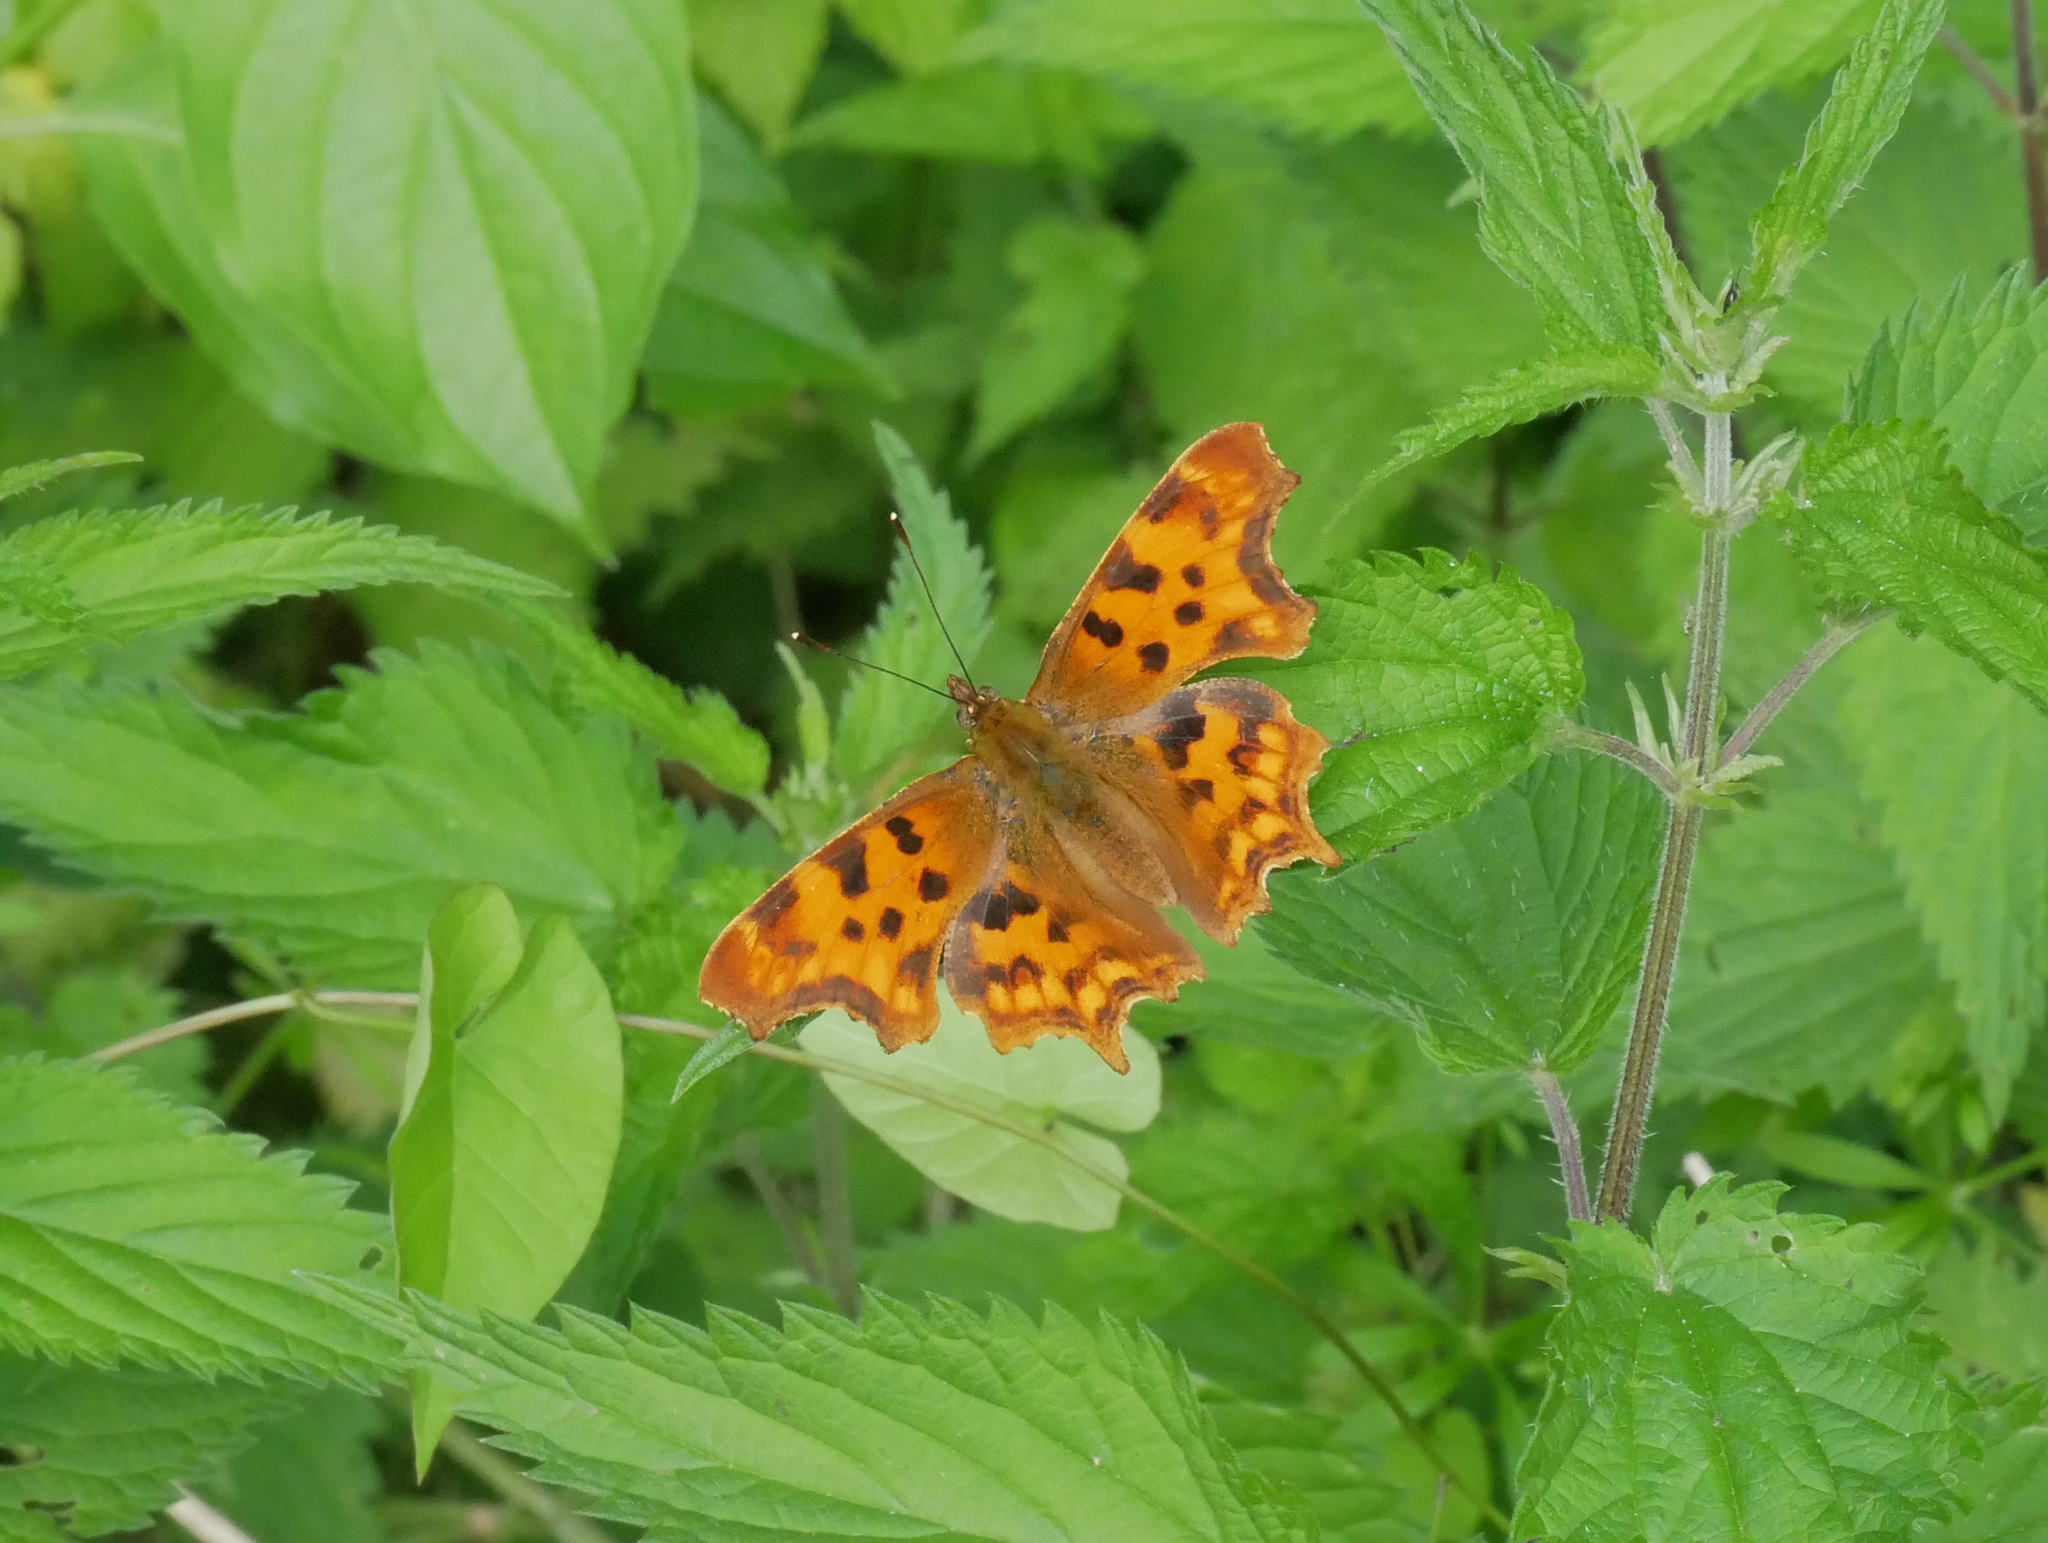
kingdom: Animalia
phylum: Arthropoda
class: Insecta
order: Lepidoptera
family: Nymphalidae
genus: Polygonia
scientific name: Polygonia c-album
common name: Comma
